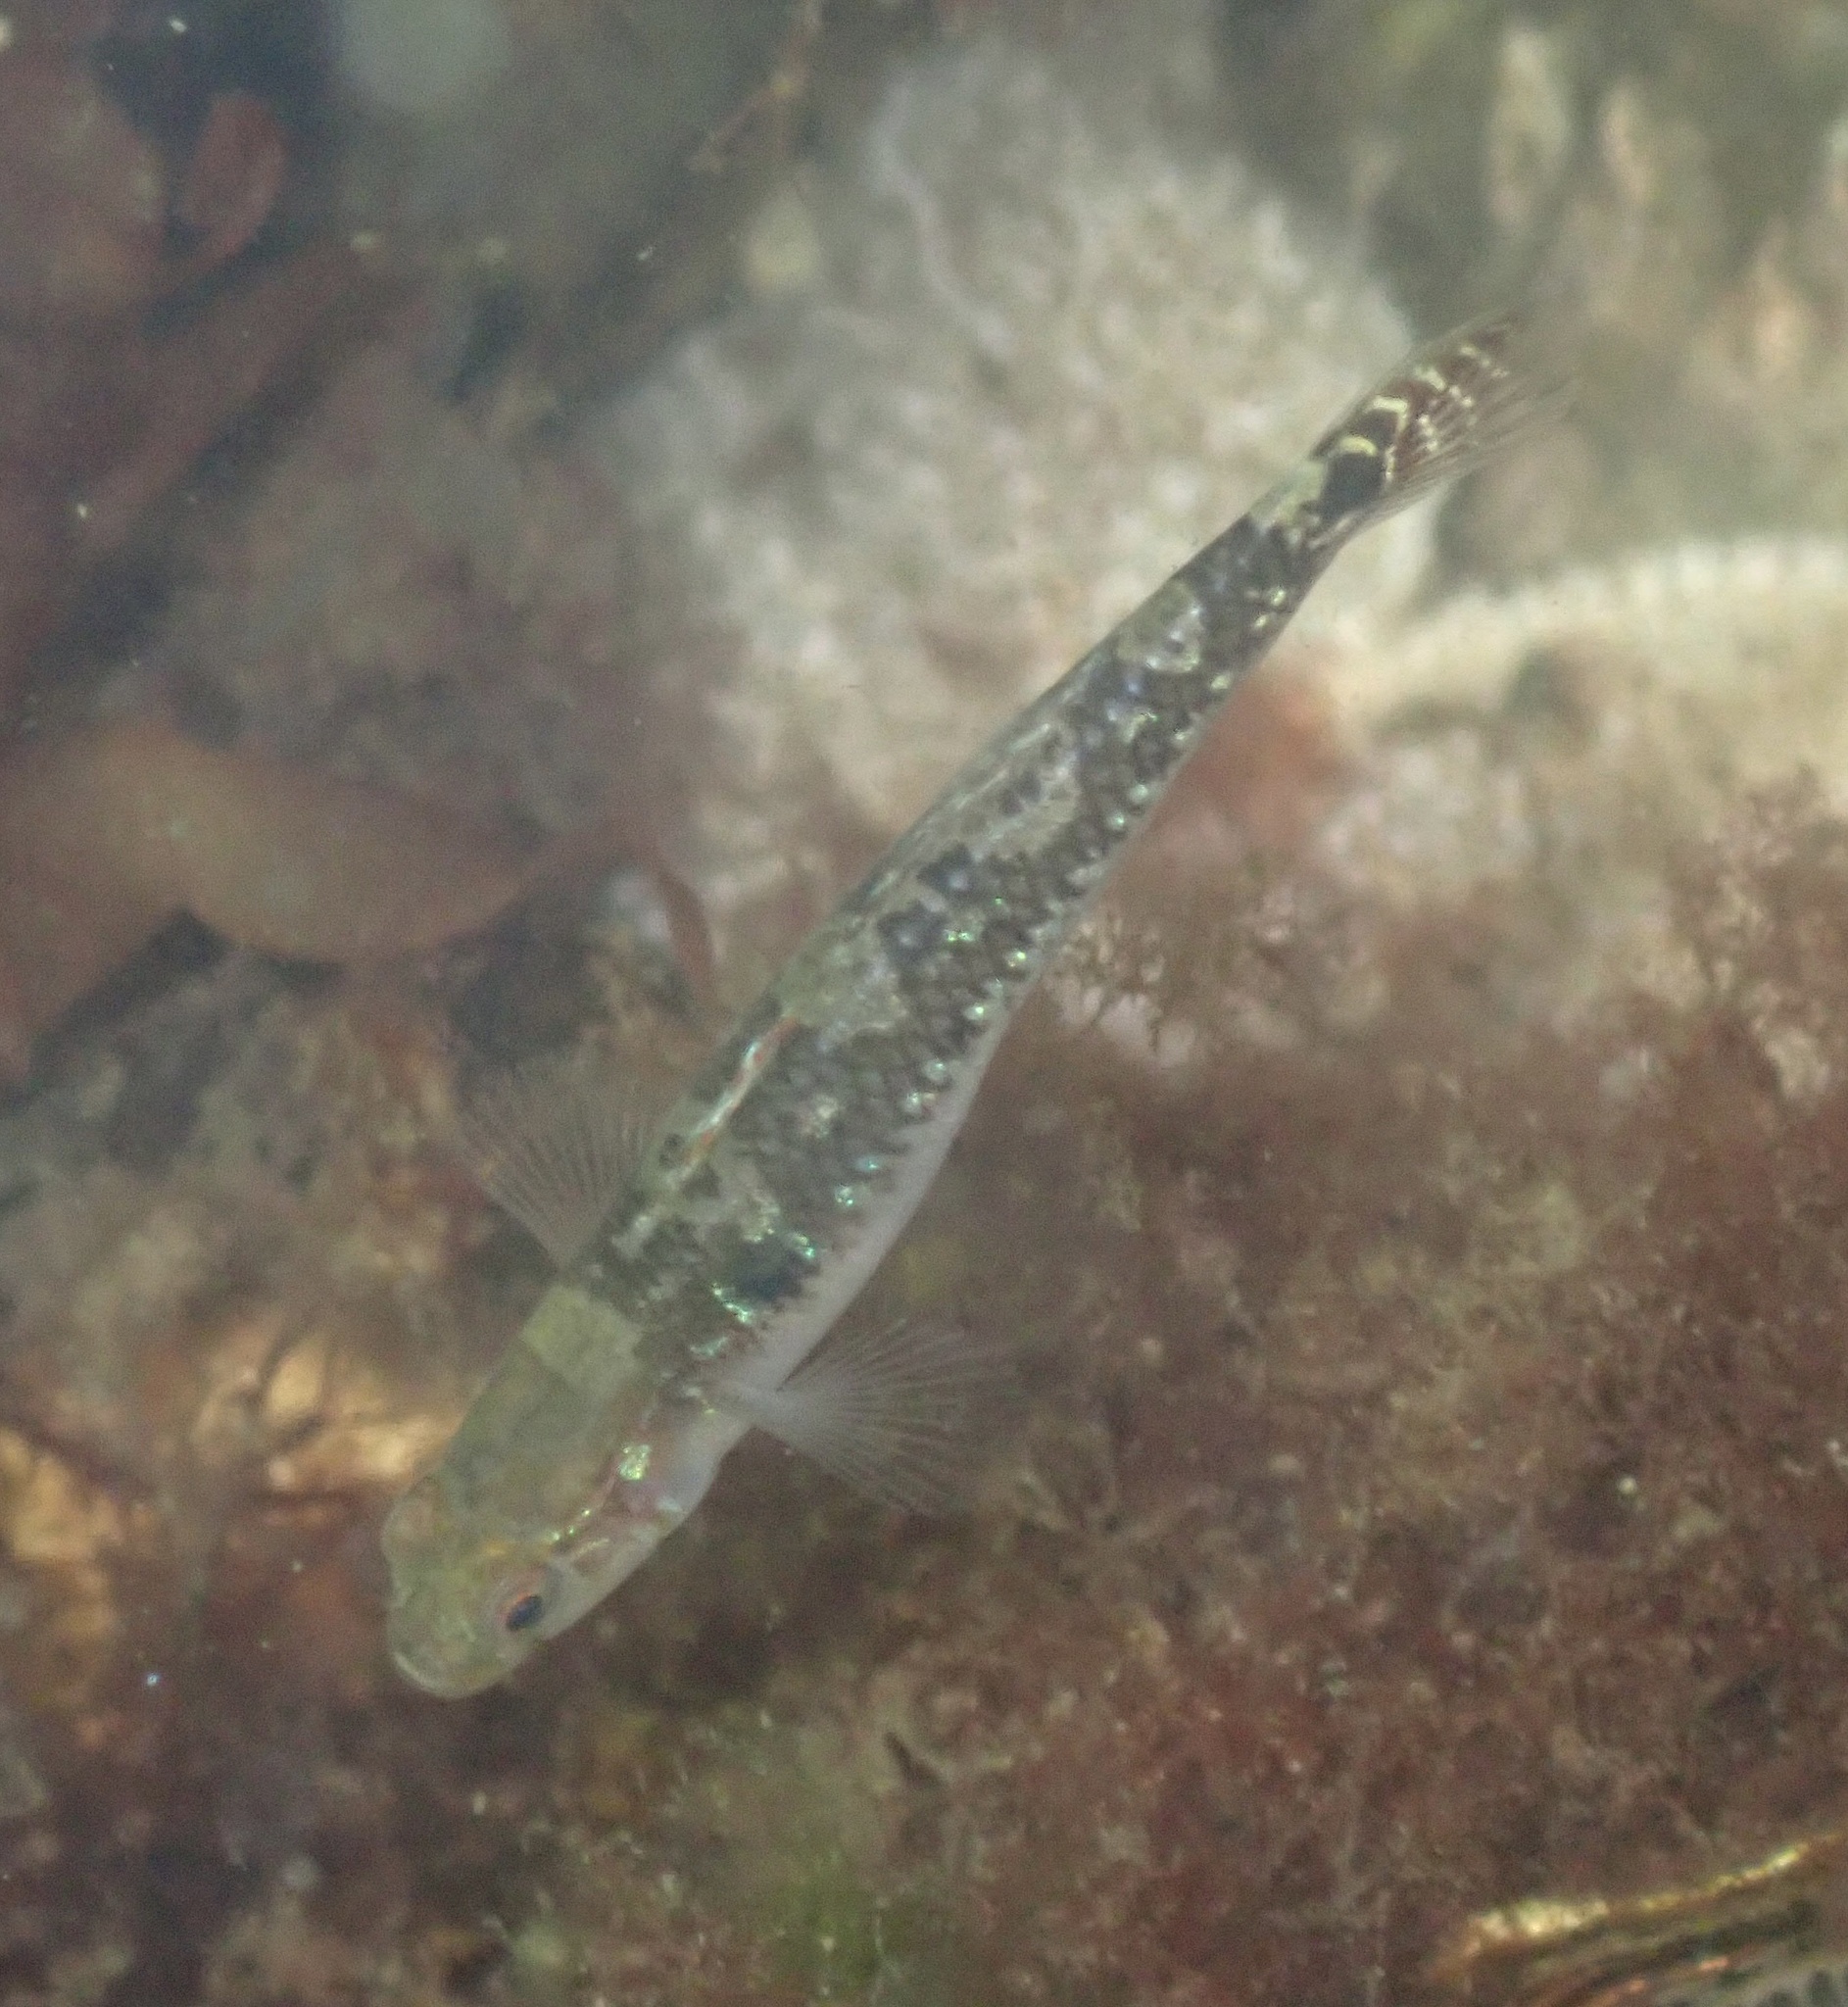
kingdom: Animalia
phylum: Chordata
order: Perciformes
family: Gobiidae
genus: Gobiusculus
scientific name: Gobiusculus flavescens
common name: Two-spotted goby
